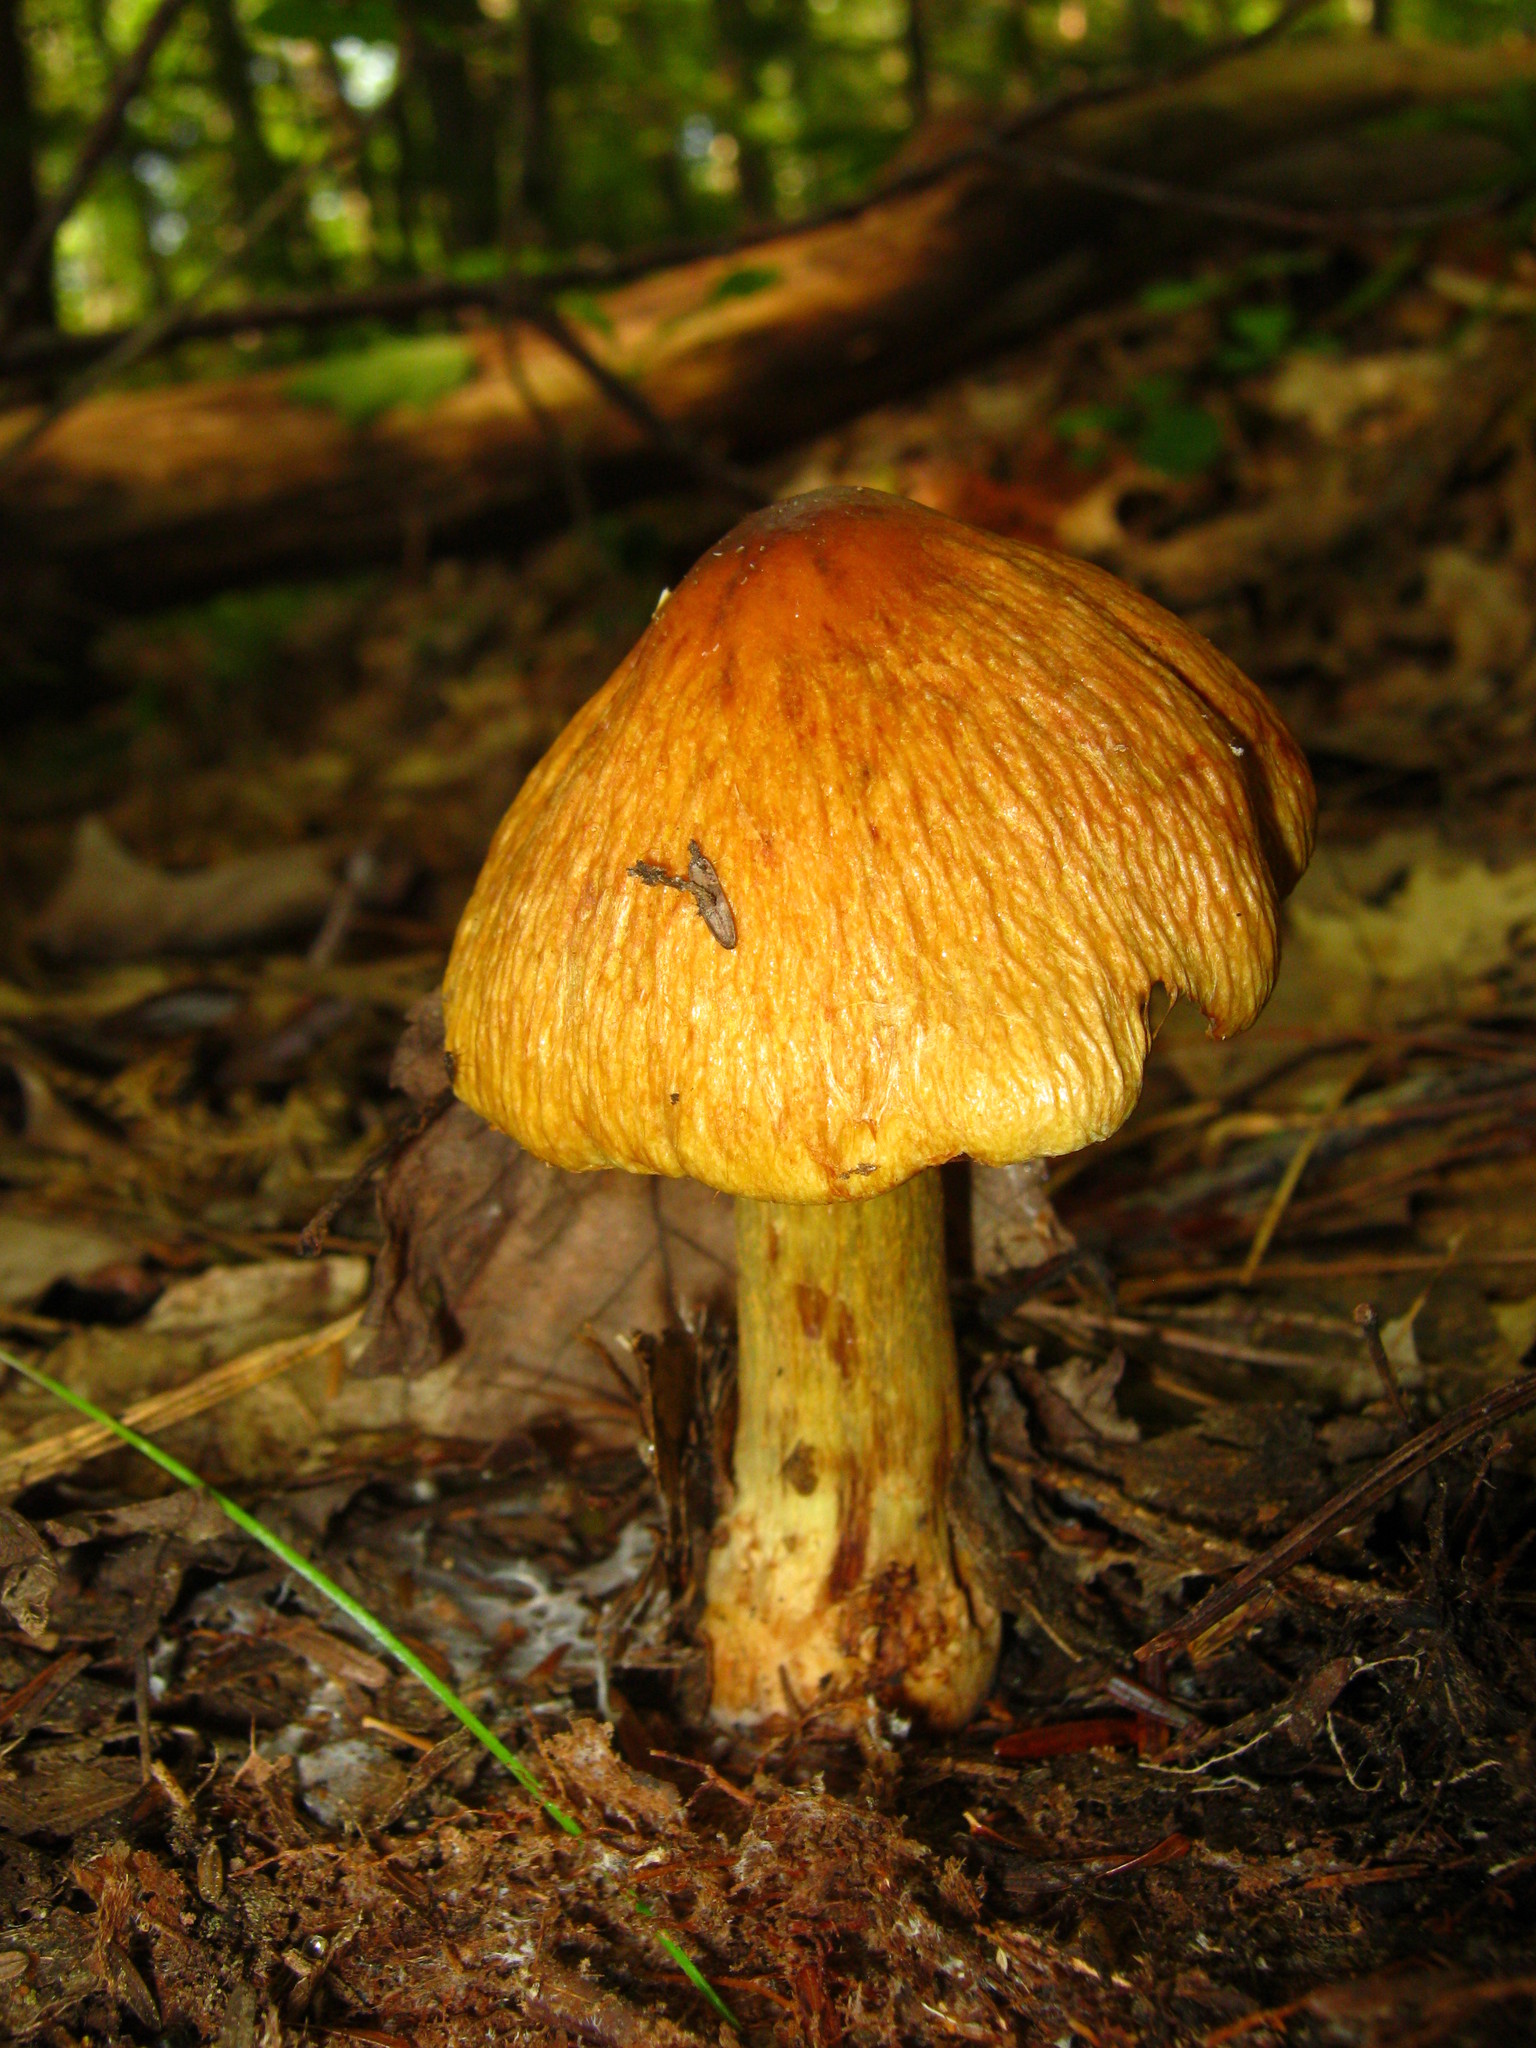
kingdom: Fungi
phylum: Basidiomycota
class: Agaricomycetes
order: Agaricales
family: Cortinariaceae
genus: Cortinarius
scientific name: Cortinarius corrugatus
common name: Wrinkled cortinarius
